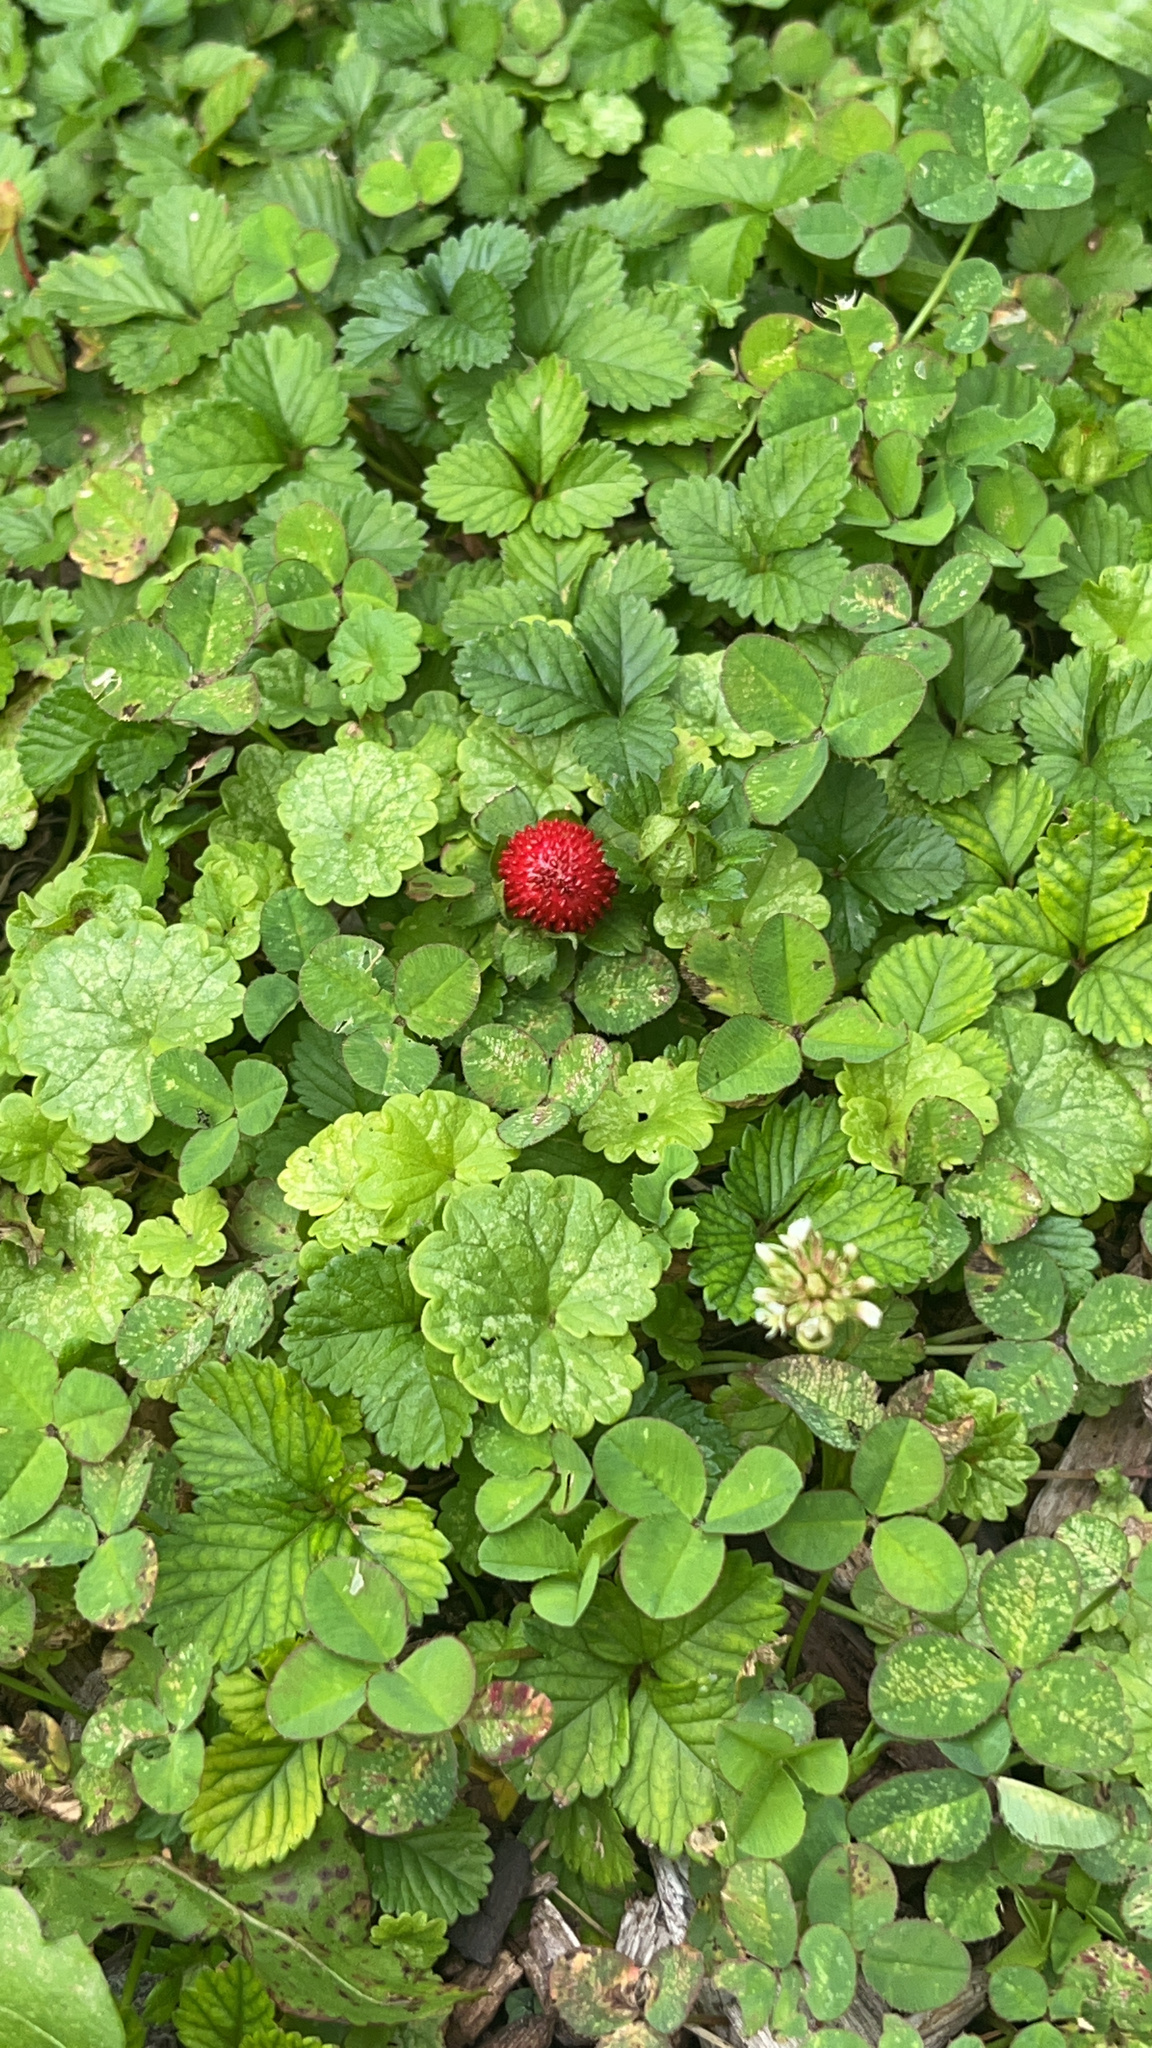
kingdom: Plantae
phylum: Tracheophyta
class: Magnoliopsida
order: Rosales
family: Rosaceae
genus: Potentilla
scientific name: Potentilla indica
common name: Yellow-flowered strawberry
